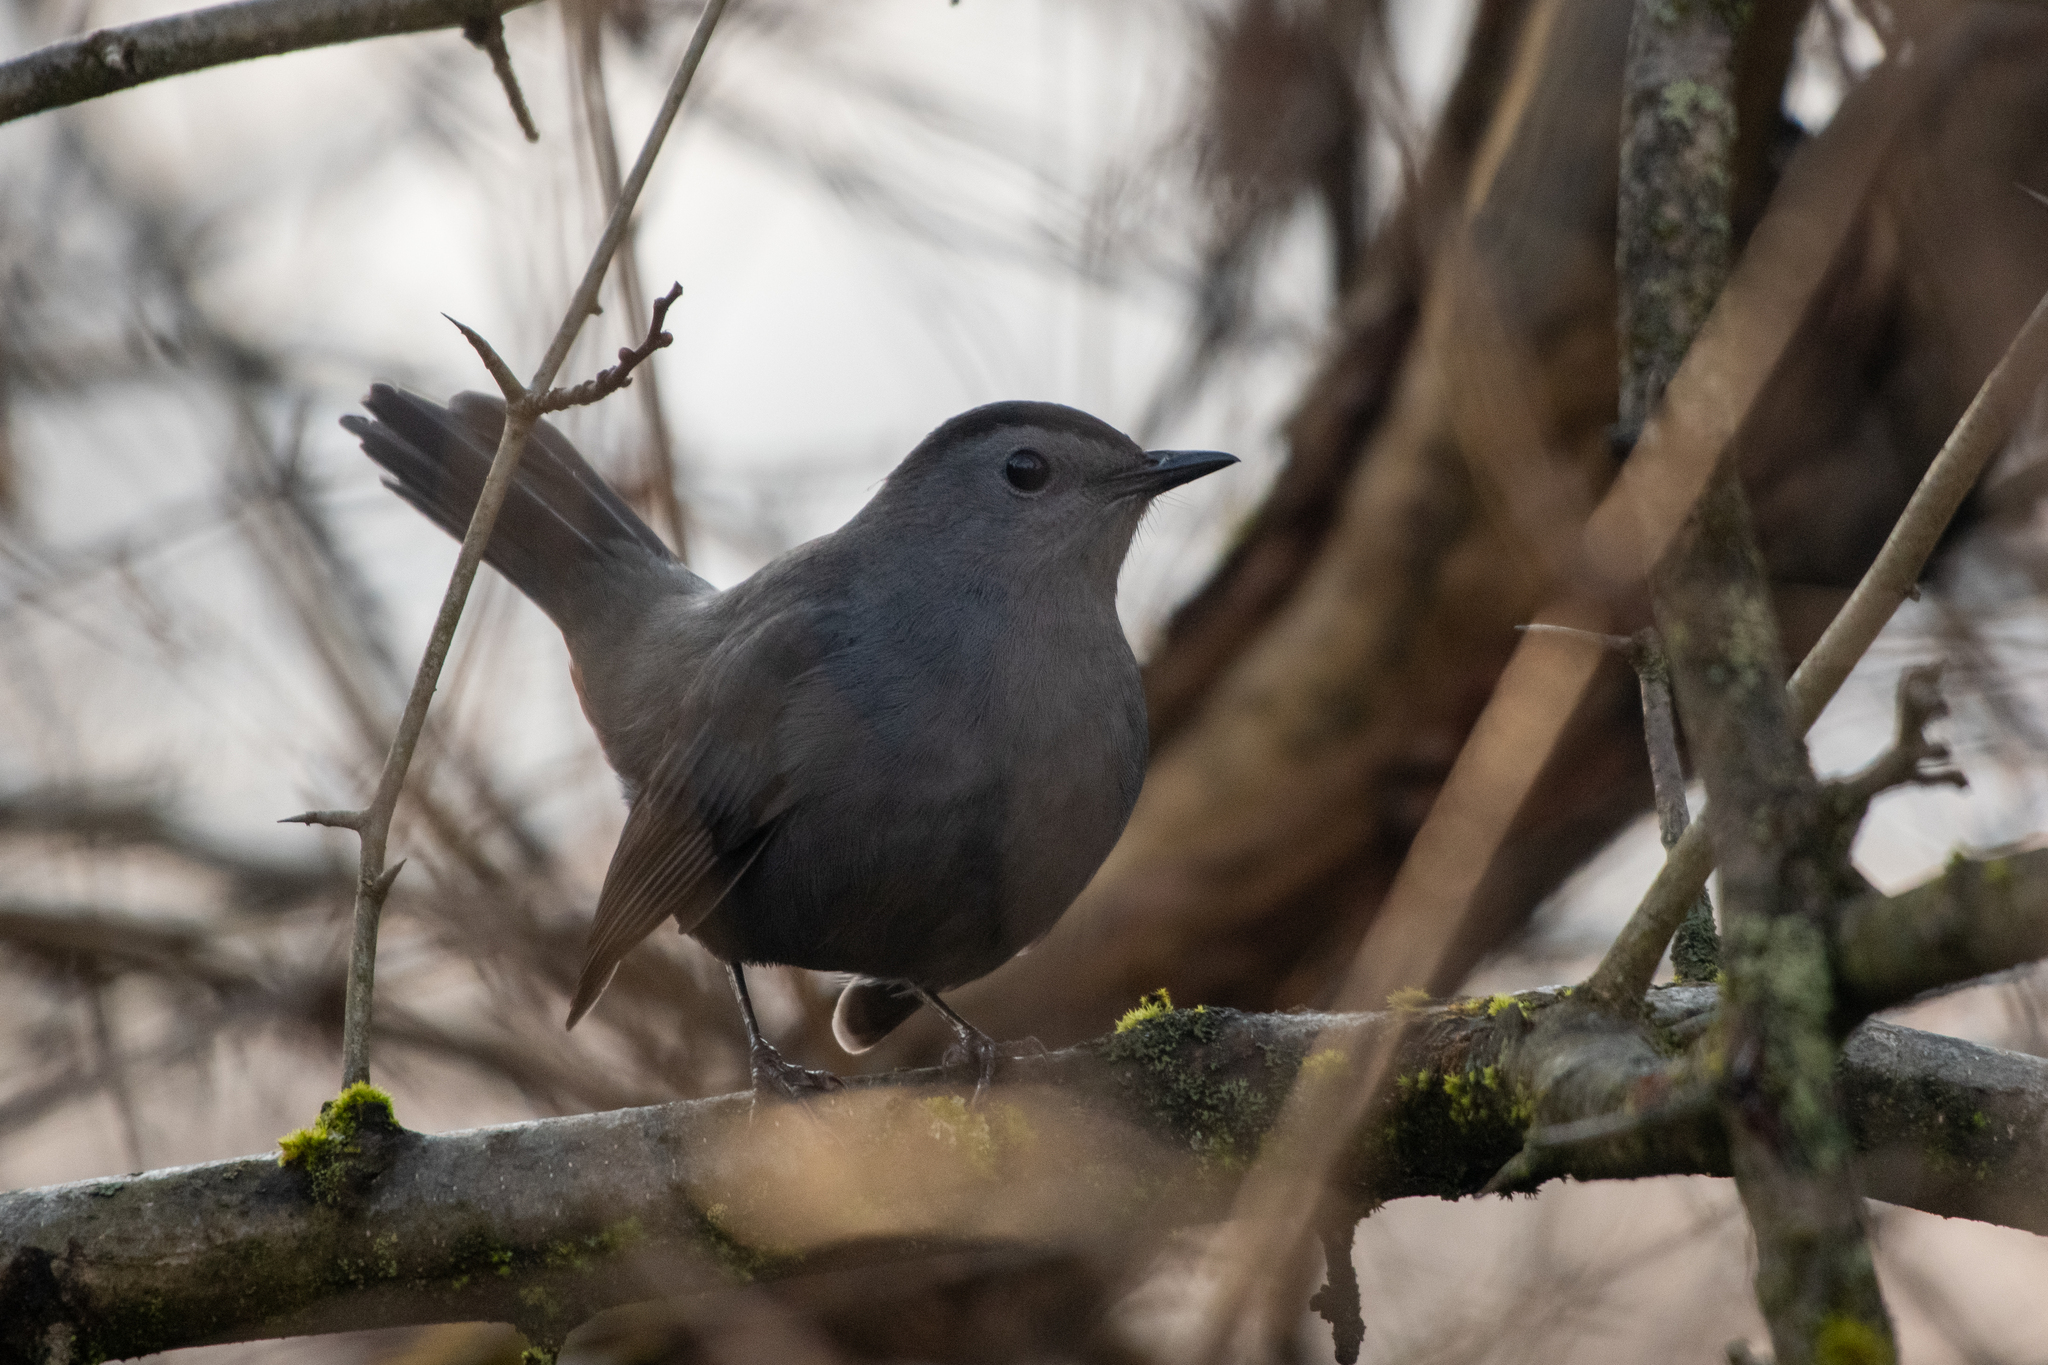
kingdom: Animalia
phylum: Chordata
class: Aves
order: Passeriformes
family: Mimidae
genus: Dumetella
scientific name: Dumetella carolinensis
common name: Gray catbird
